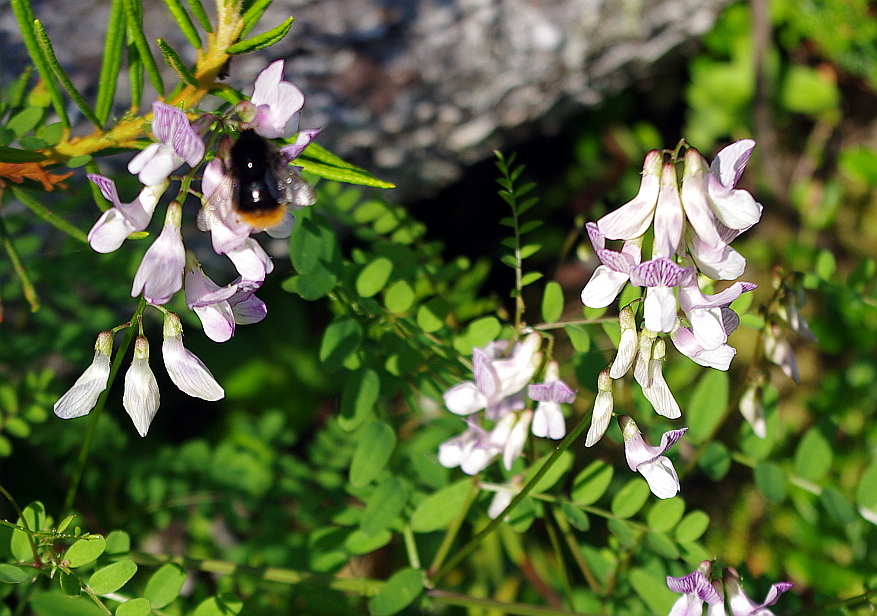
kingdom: Plantae
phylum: Tracheophyta
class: Magnoliopsida
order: Fabales
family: Fabaceae
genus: Vicia
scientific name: Vicia sylvatica
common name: Wood vetch
